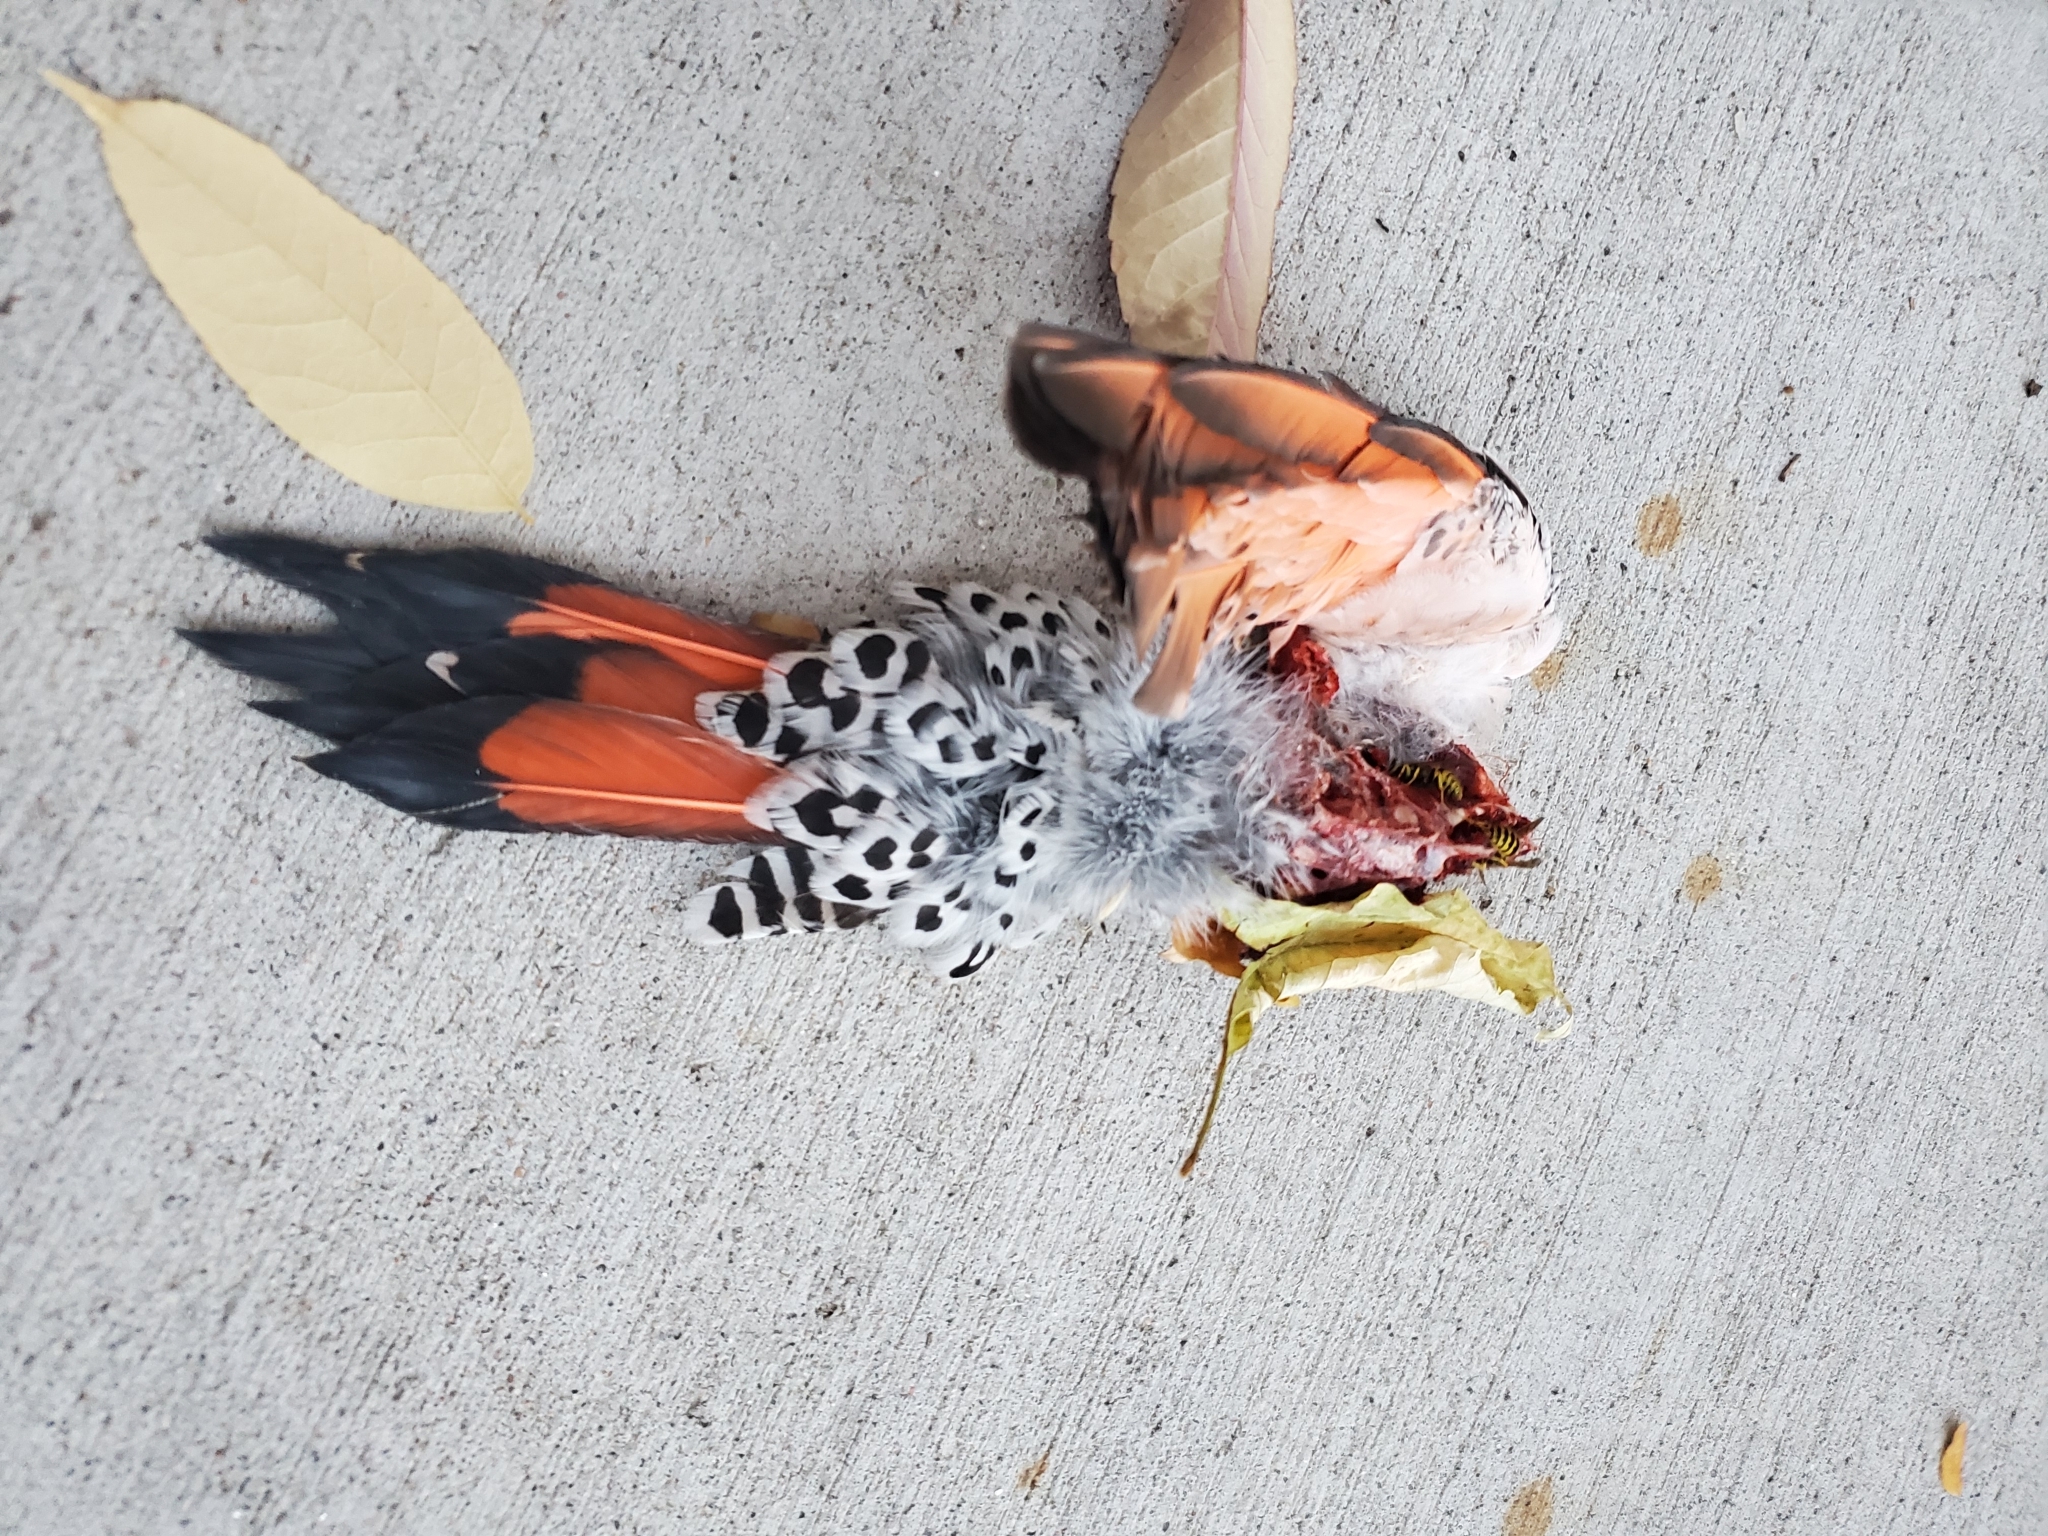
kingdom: Animalia
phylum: Chordata
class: Aves
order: Piciformes
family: Picidae
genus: Colaptes
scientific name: Colaptes auratus
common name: Northern flicker
